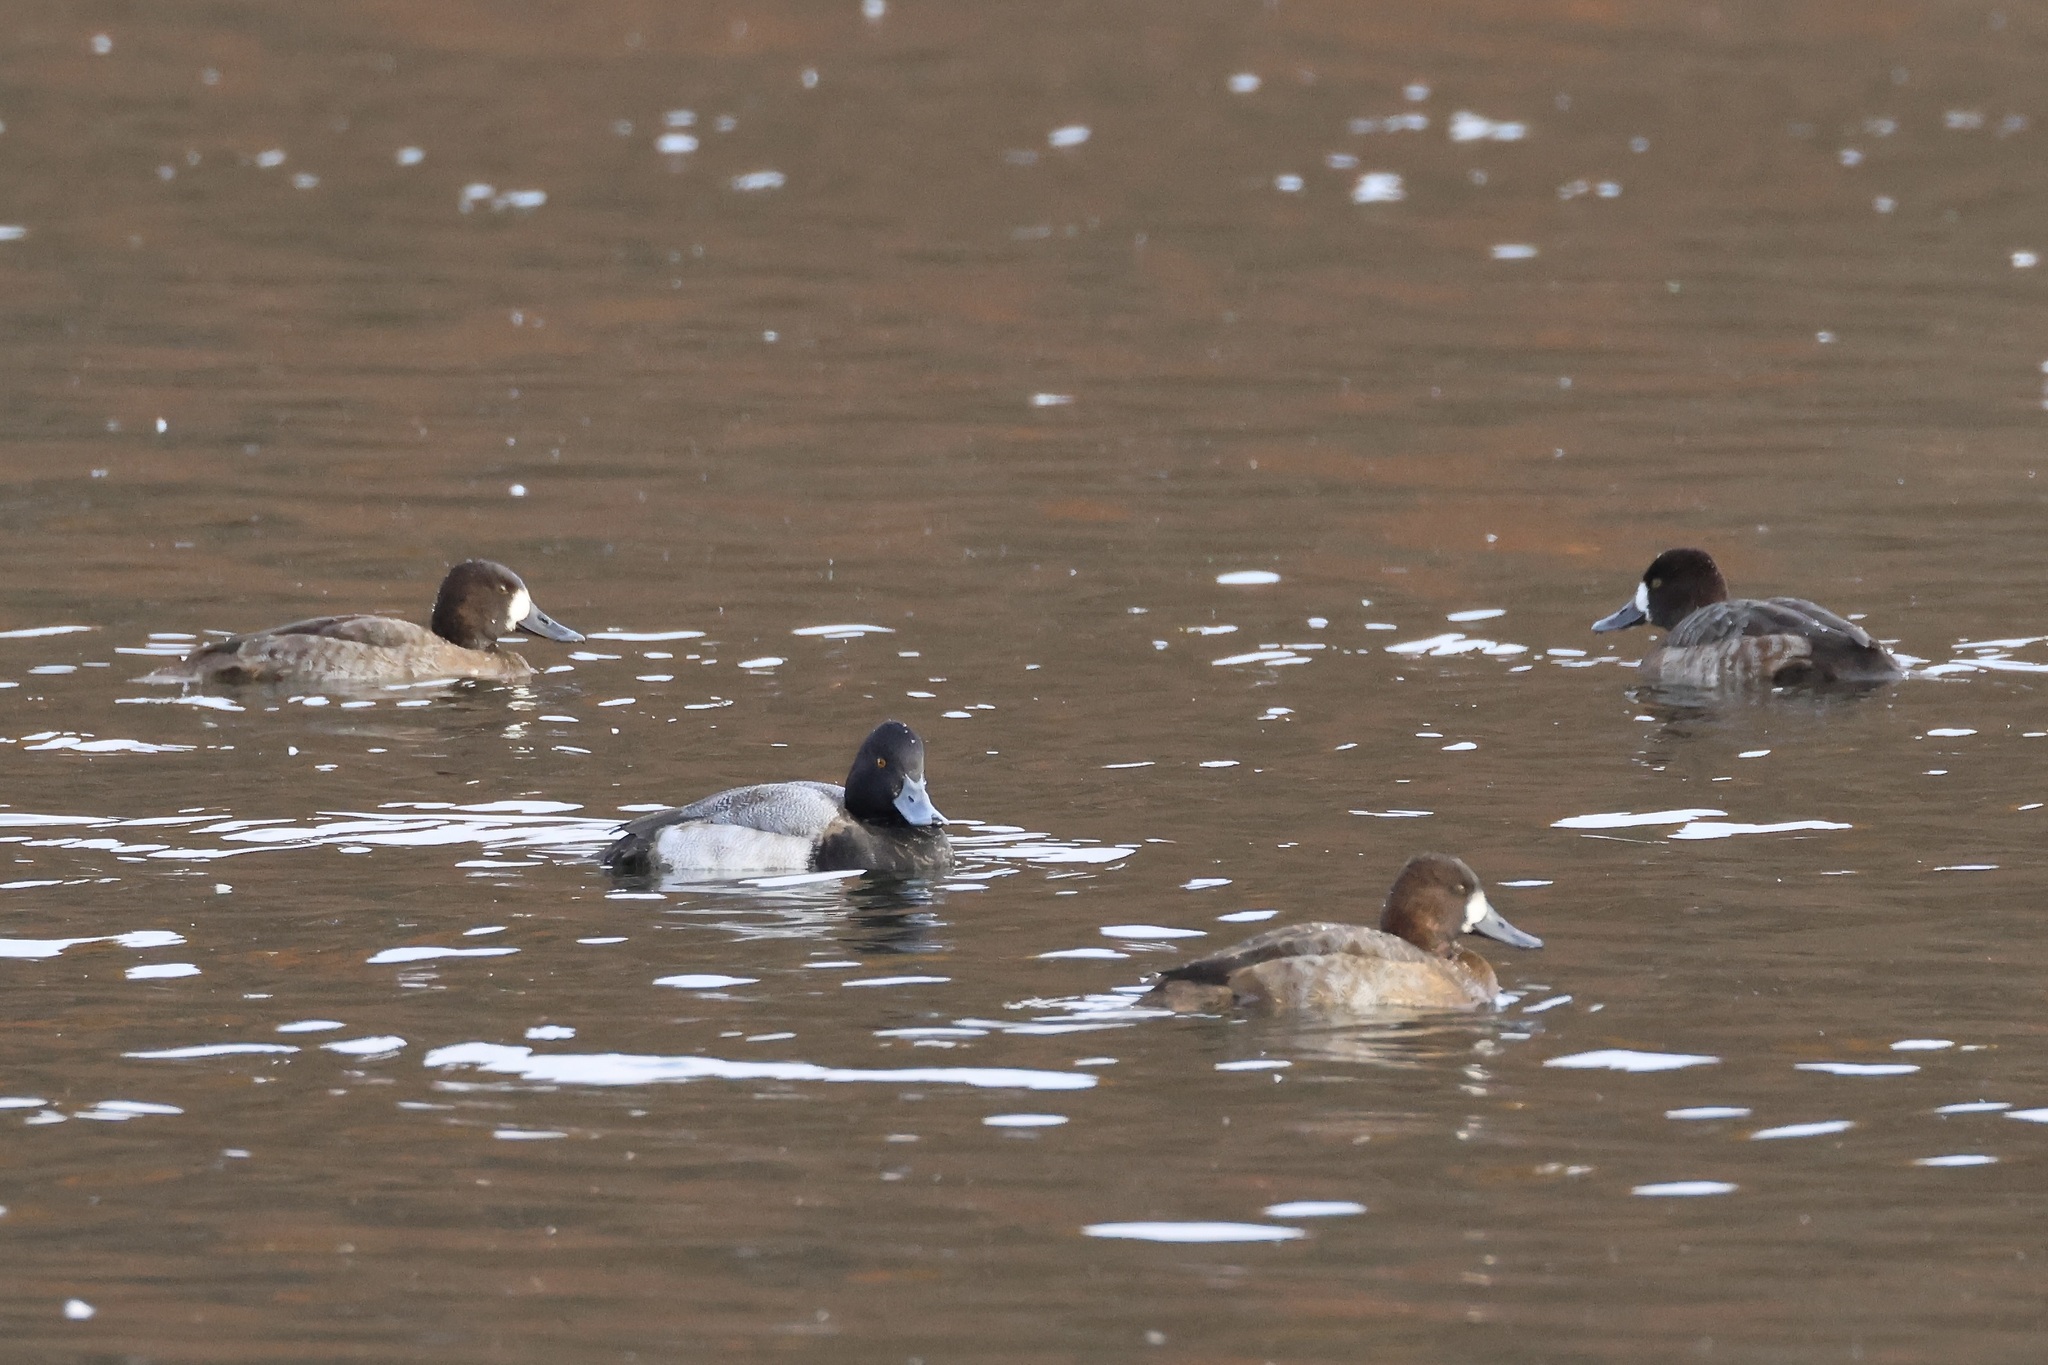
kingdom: Animalia
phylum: Chordata
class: Aves
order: Anseriformes
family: Anatidae
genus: Aythya
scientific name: Aythya affinis
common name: Lesser scaup
